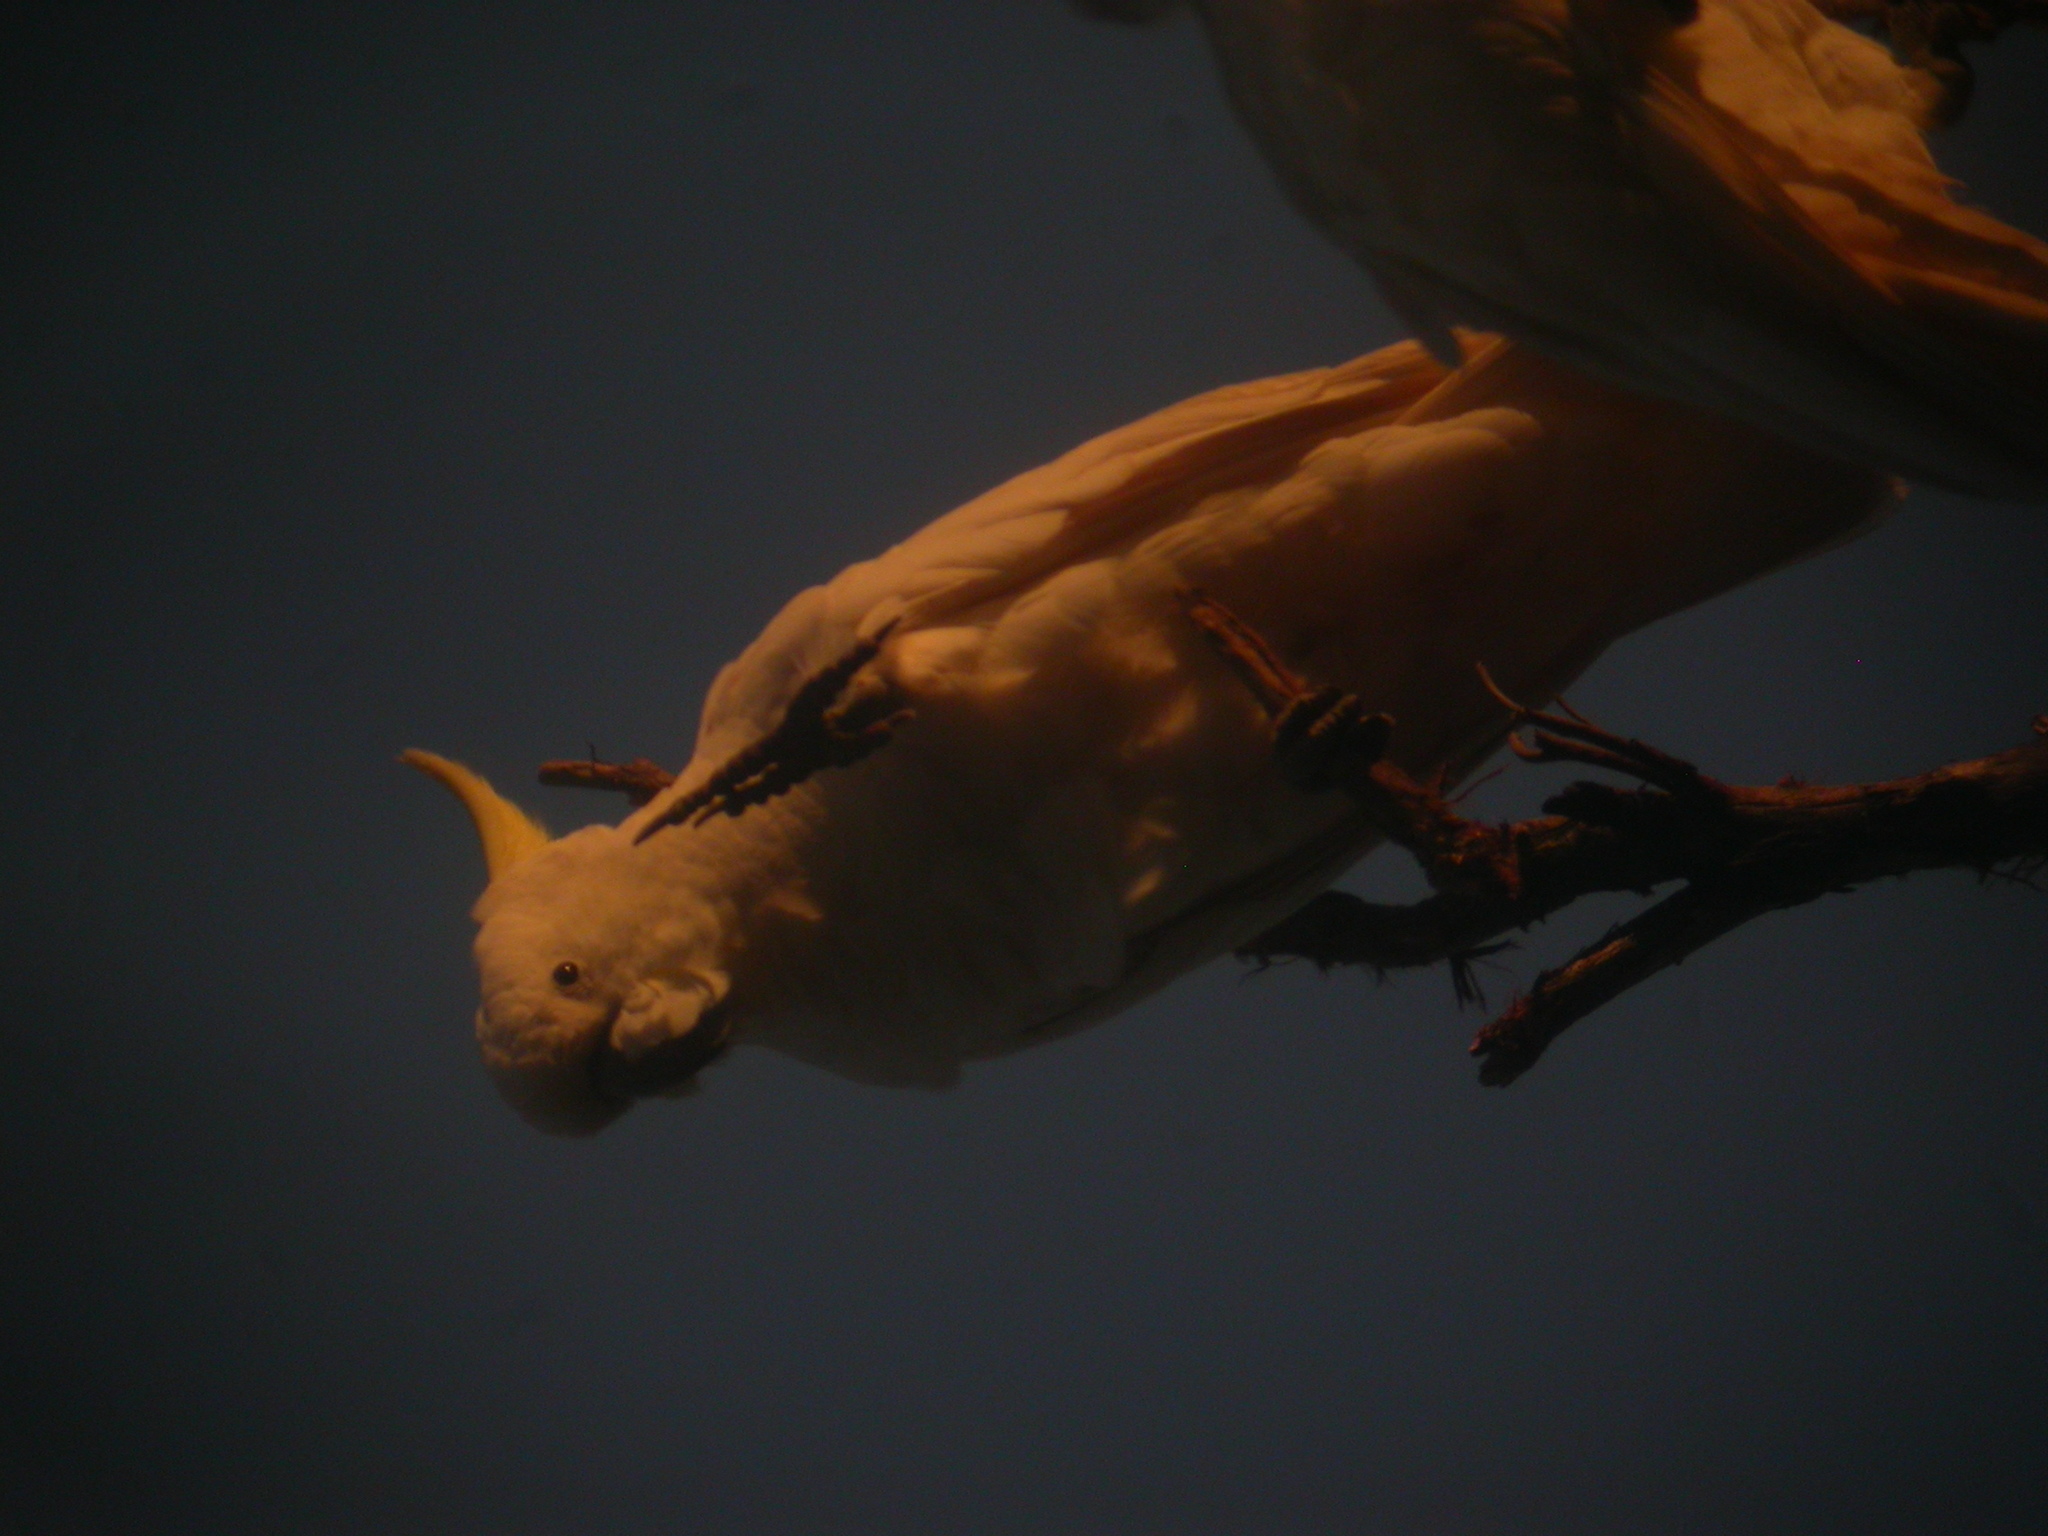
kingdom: Animalia
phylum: Chordata
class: Aves
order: Psittaciformes
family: Psittacidae
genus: Cacatua
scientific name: Cacatua galerita
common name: Sulphur-crested cockatoo
